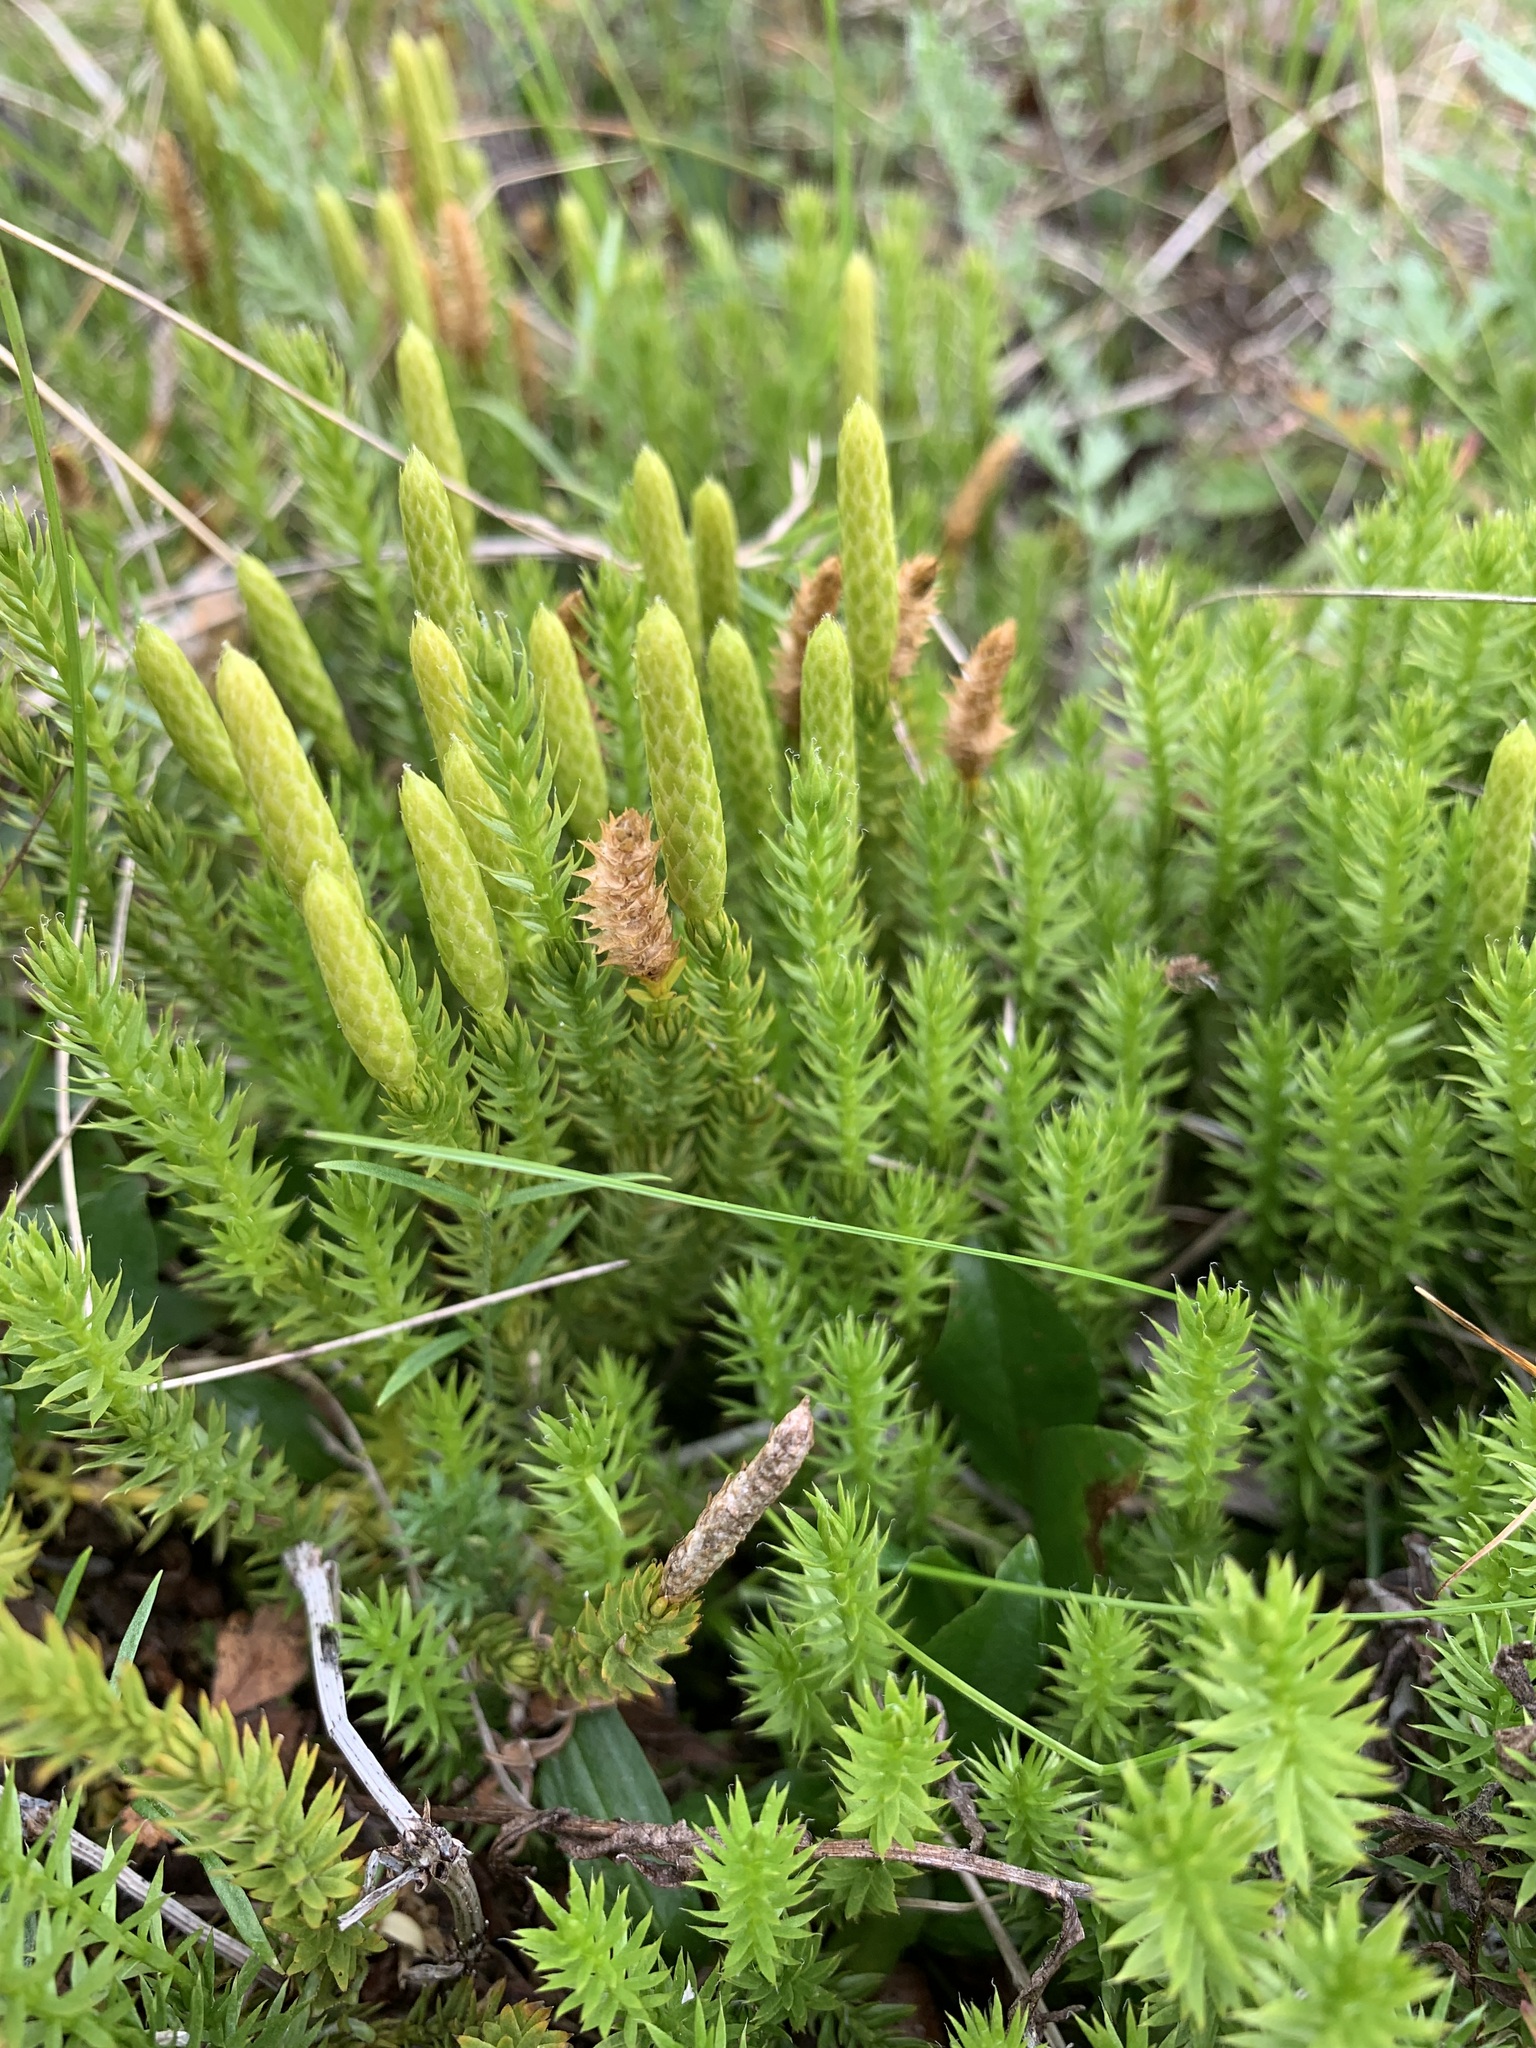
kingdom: Plantae
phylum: Tracheophyta
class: Lycopodiopsida
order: Lycopodiales
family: Lycopodiaceae
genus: Spinulum
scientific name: Spinulum annotinum
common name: Interrupted club-moss
